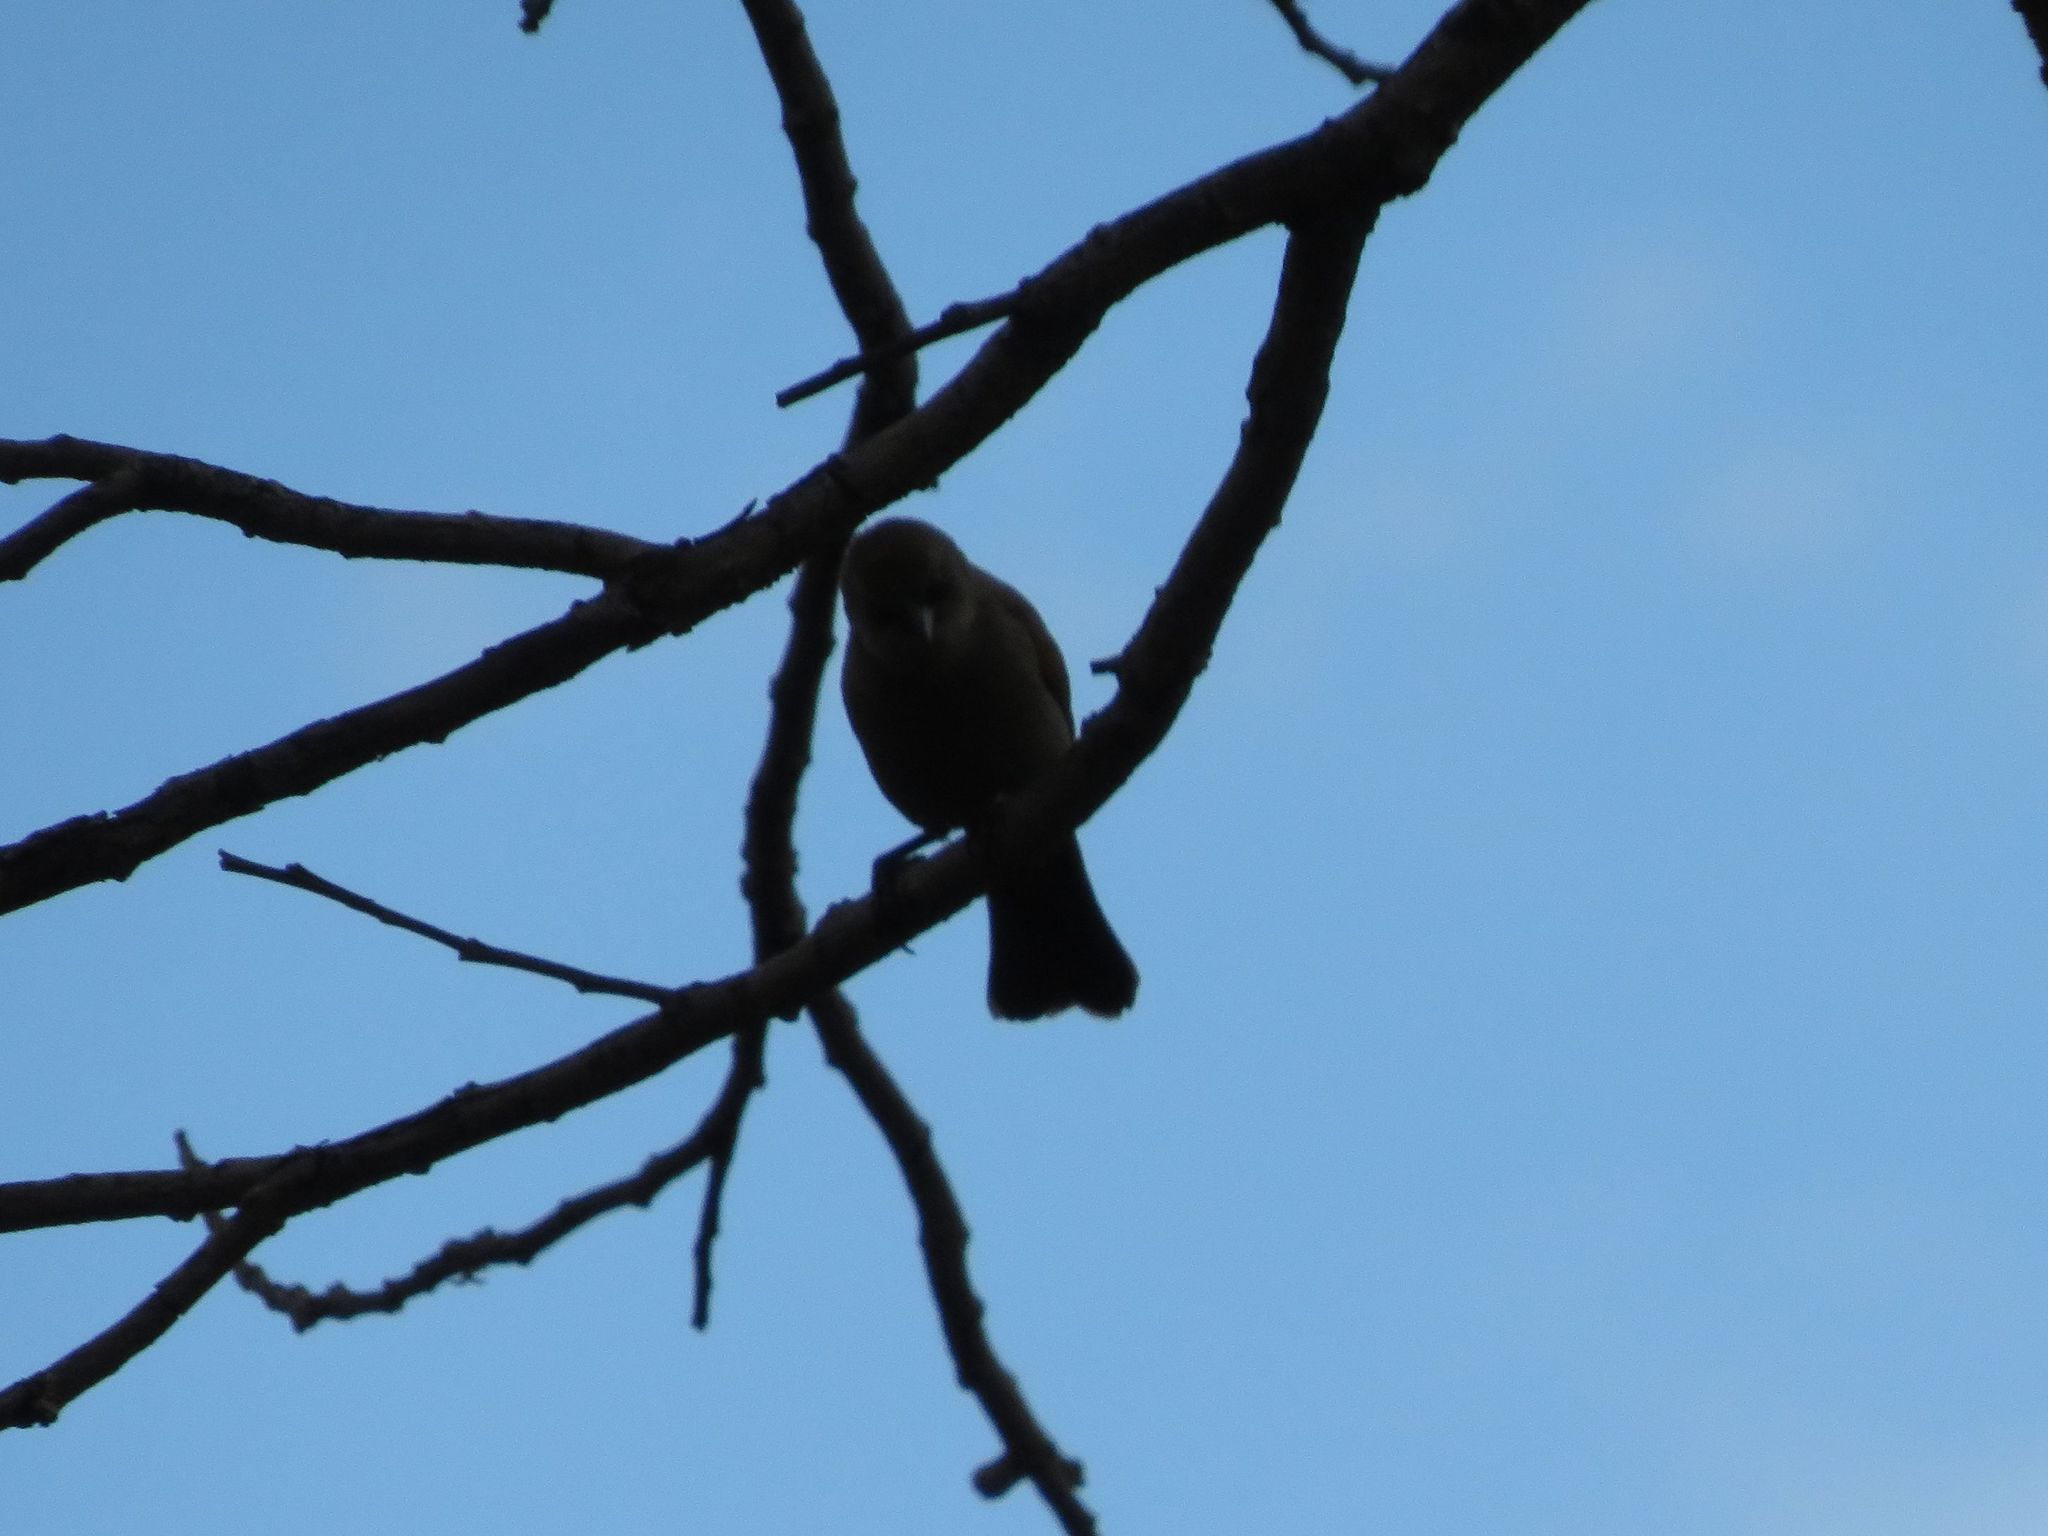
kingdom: Animalia
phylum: Chordata
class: Aves
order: Passeriformes
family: Icteridae
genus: Agelaioides
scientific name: Agelaioides badius
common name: Baywing
